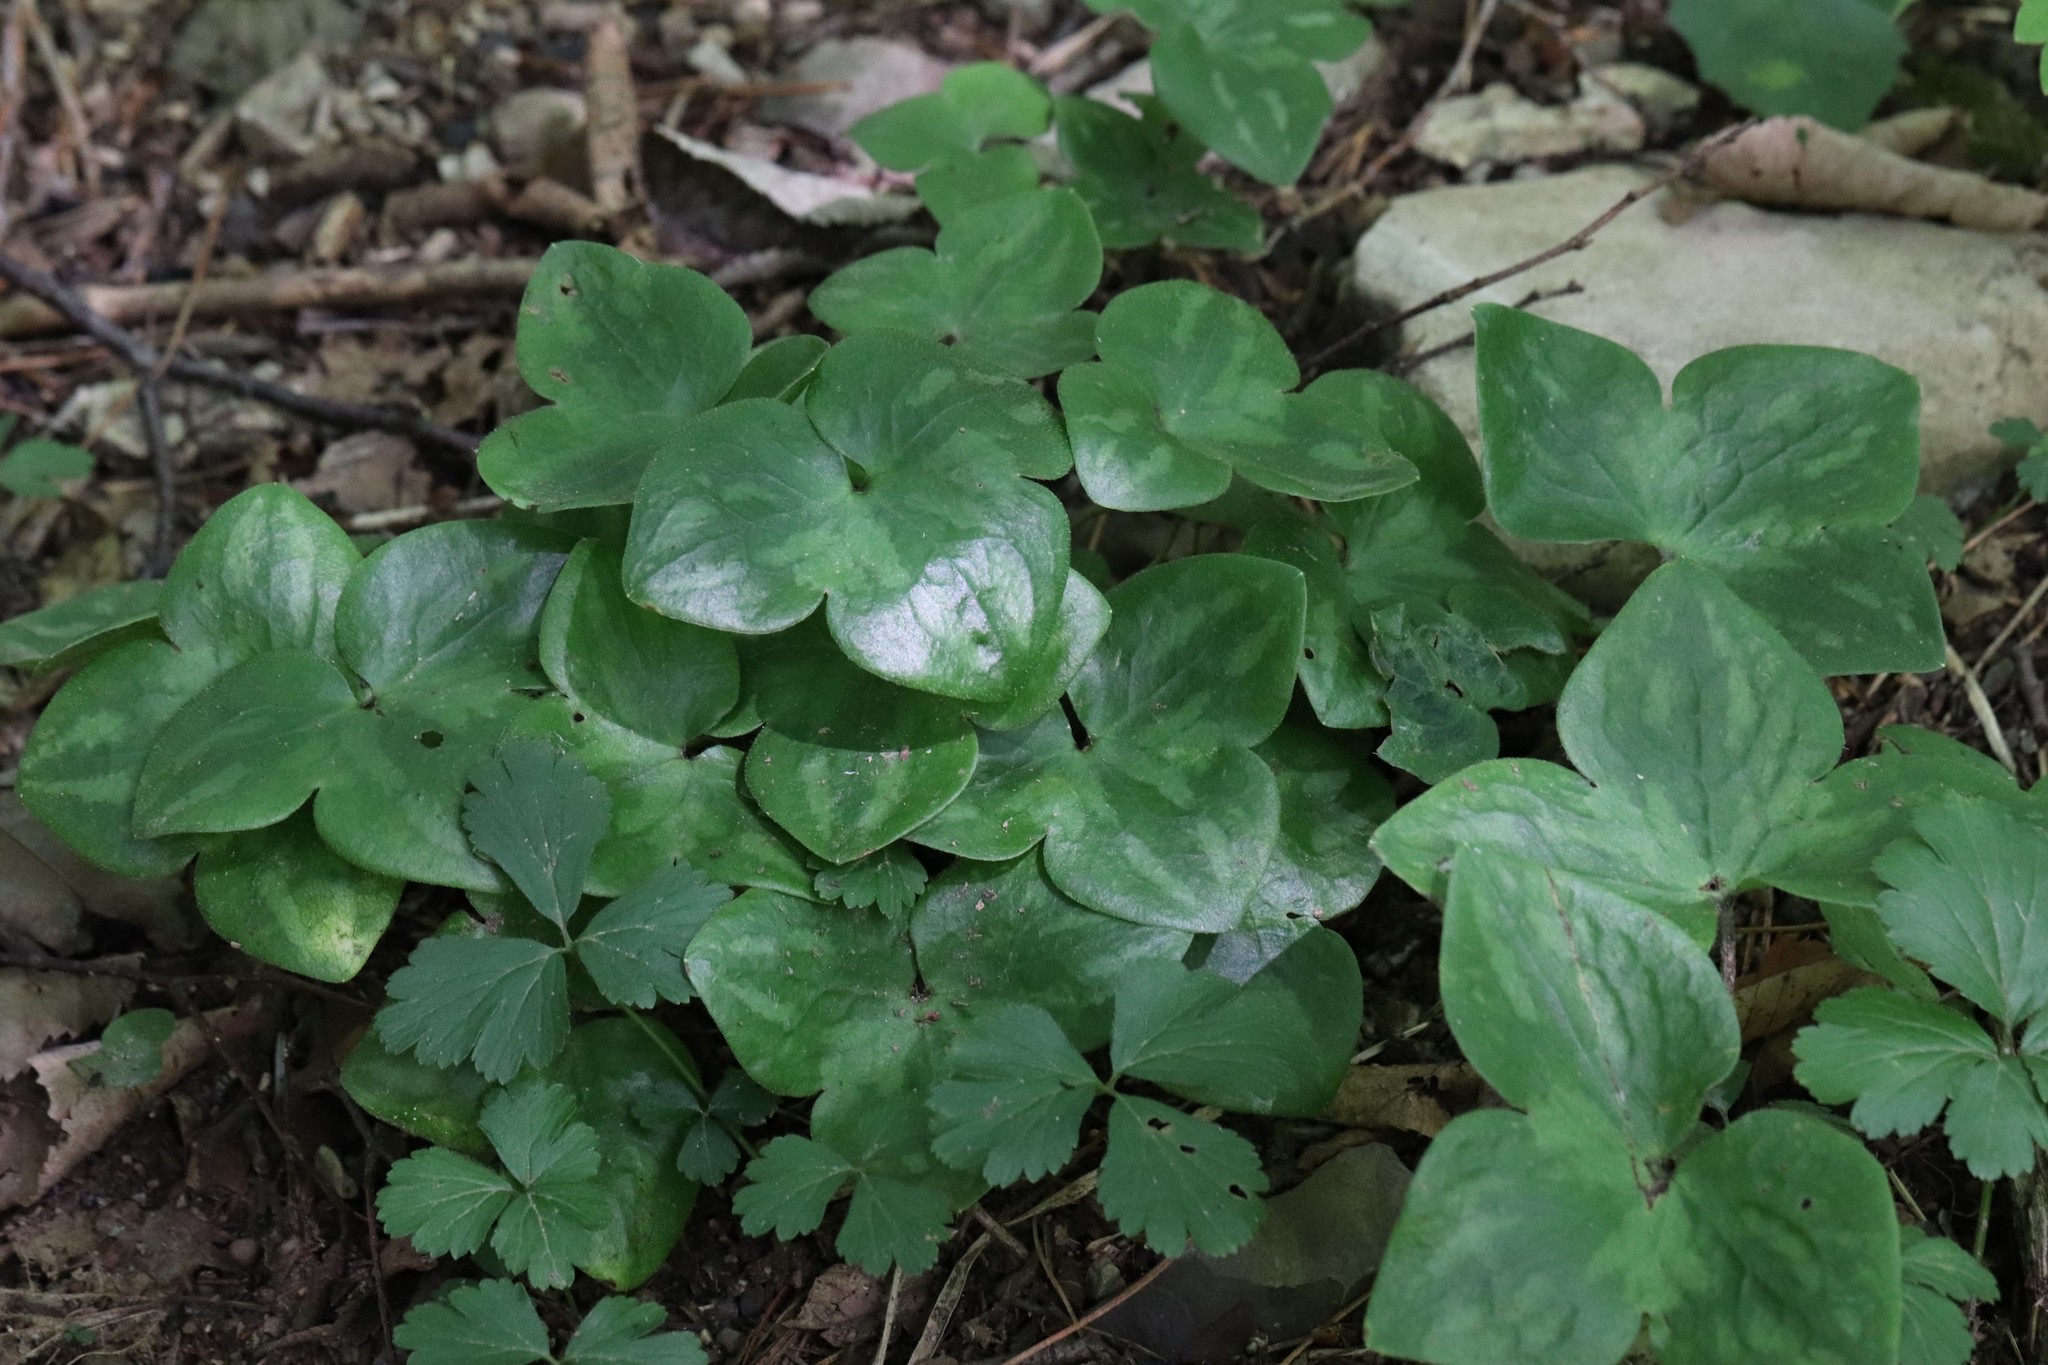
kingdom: Plantae
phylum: Tracheophyta
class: Magnoliopsida
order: Ranunculales
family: Ranunculaceae
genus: Hepatica
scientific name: Hepatica asiatica
